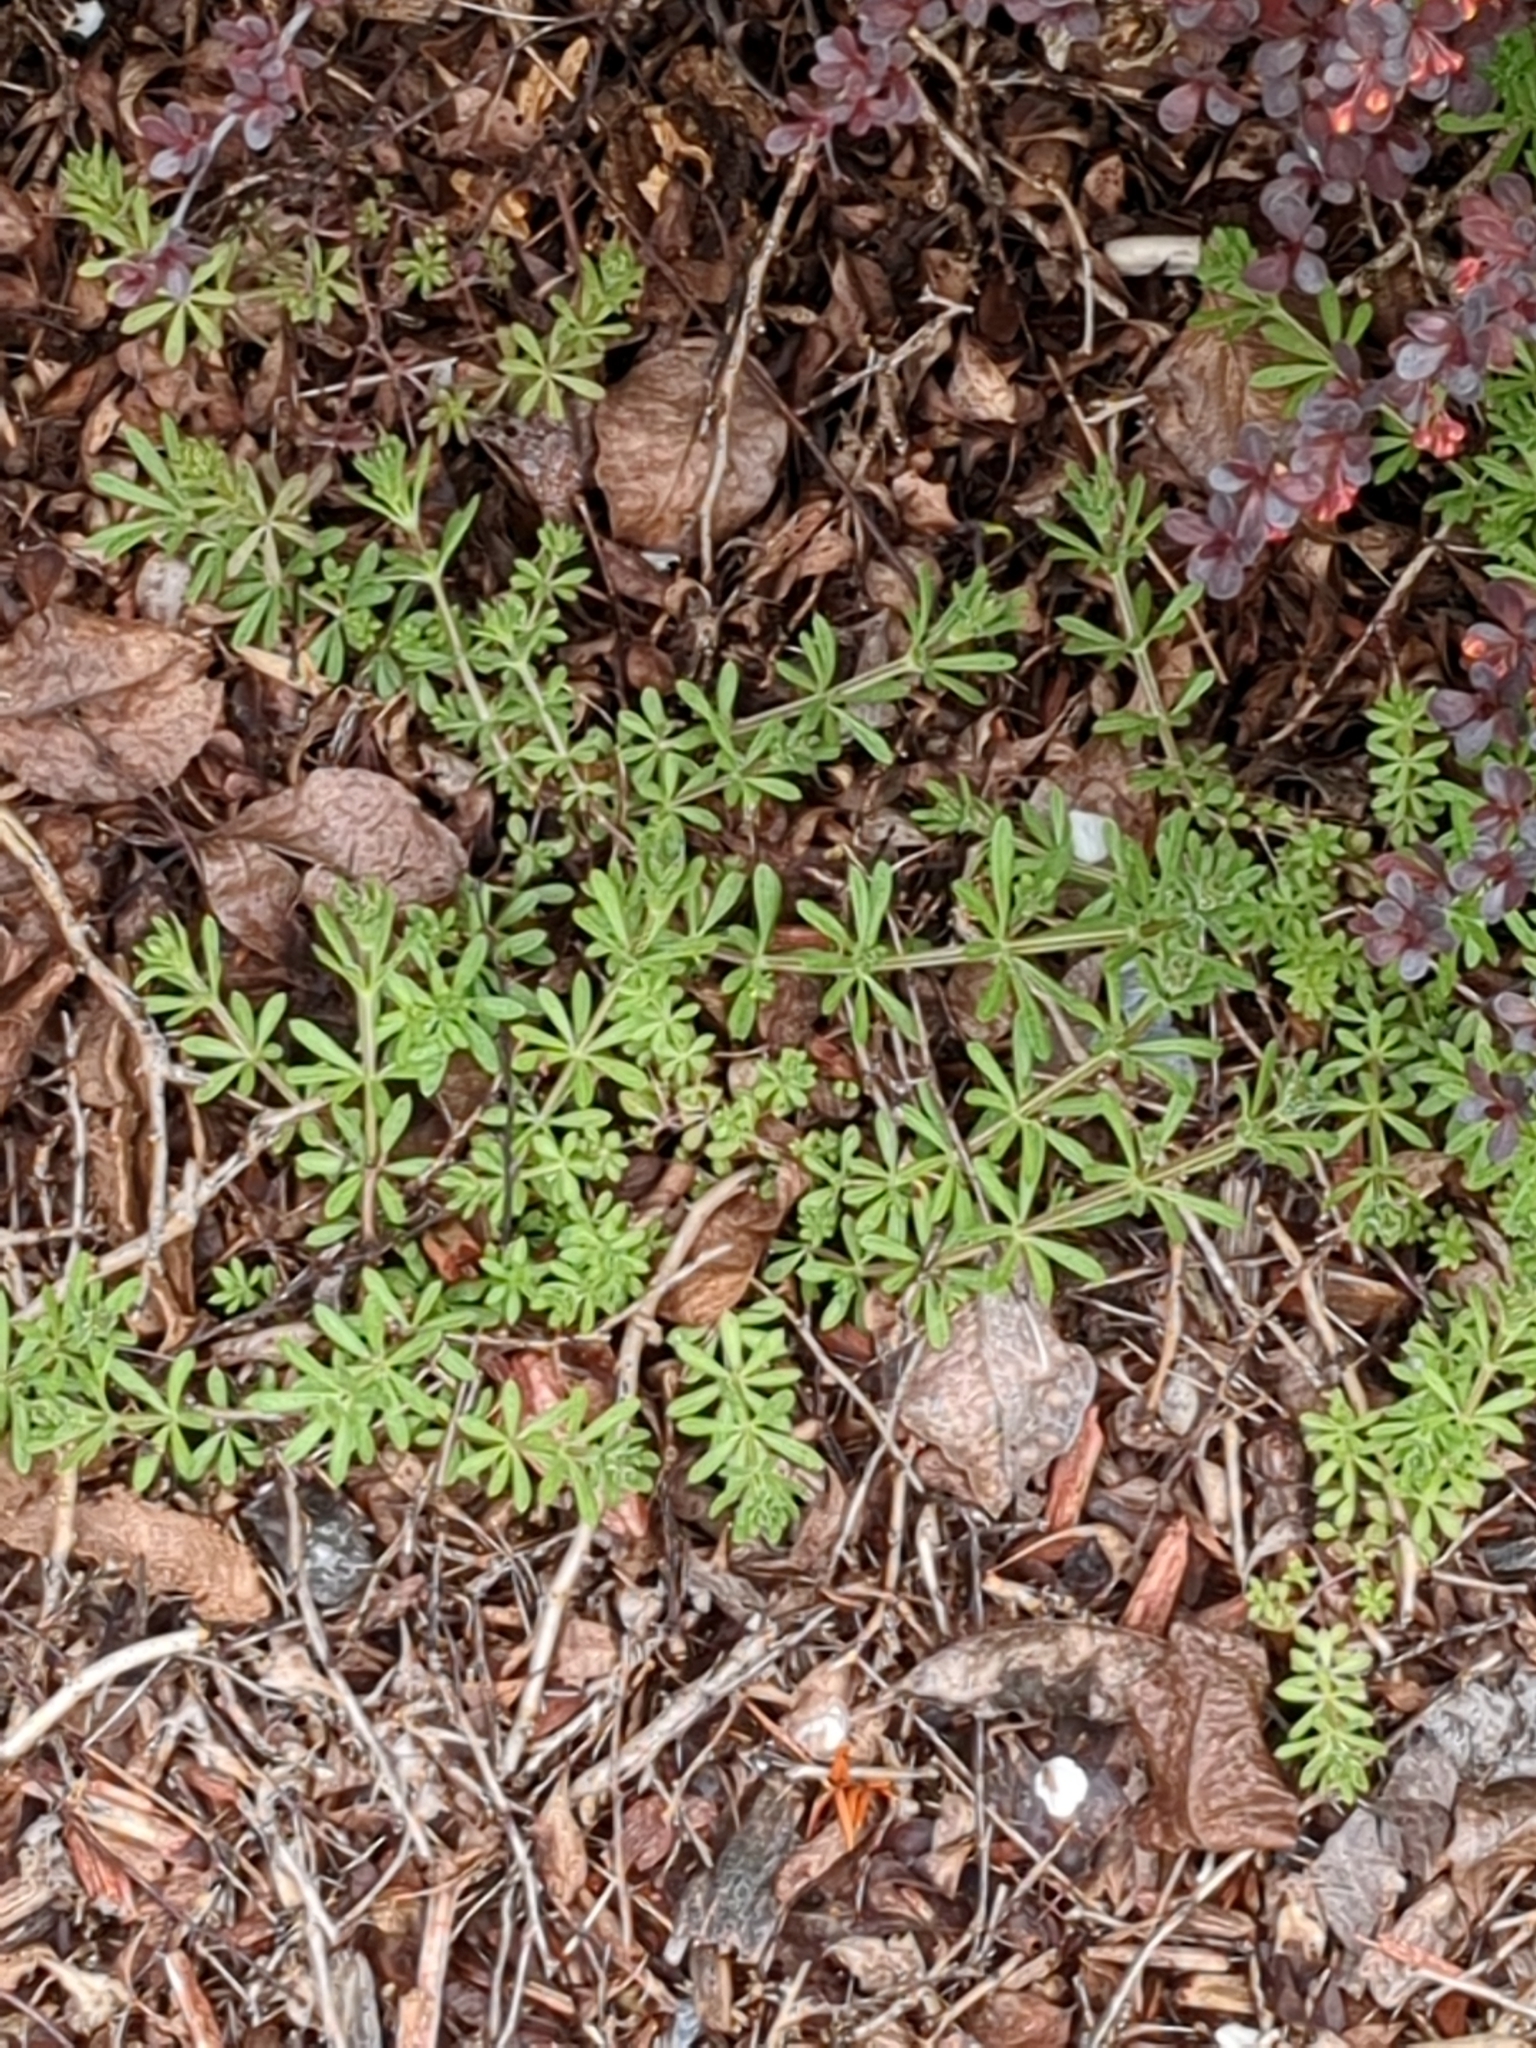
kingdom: Plantae
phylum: Tracheophyta
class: Magnoliopsida
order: Gentianales
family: Rubiaceae
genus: Galium
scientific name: Galium aparine
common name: Cleavers
